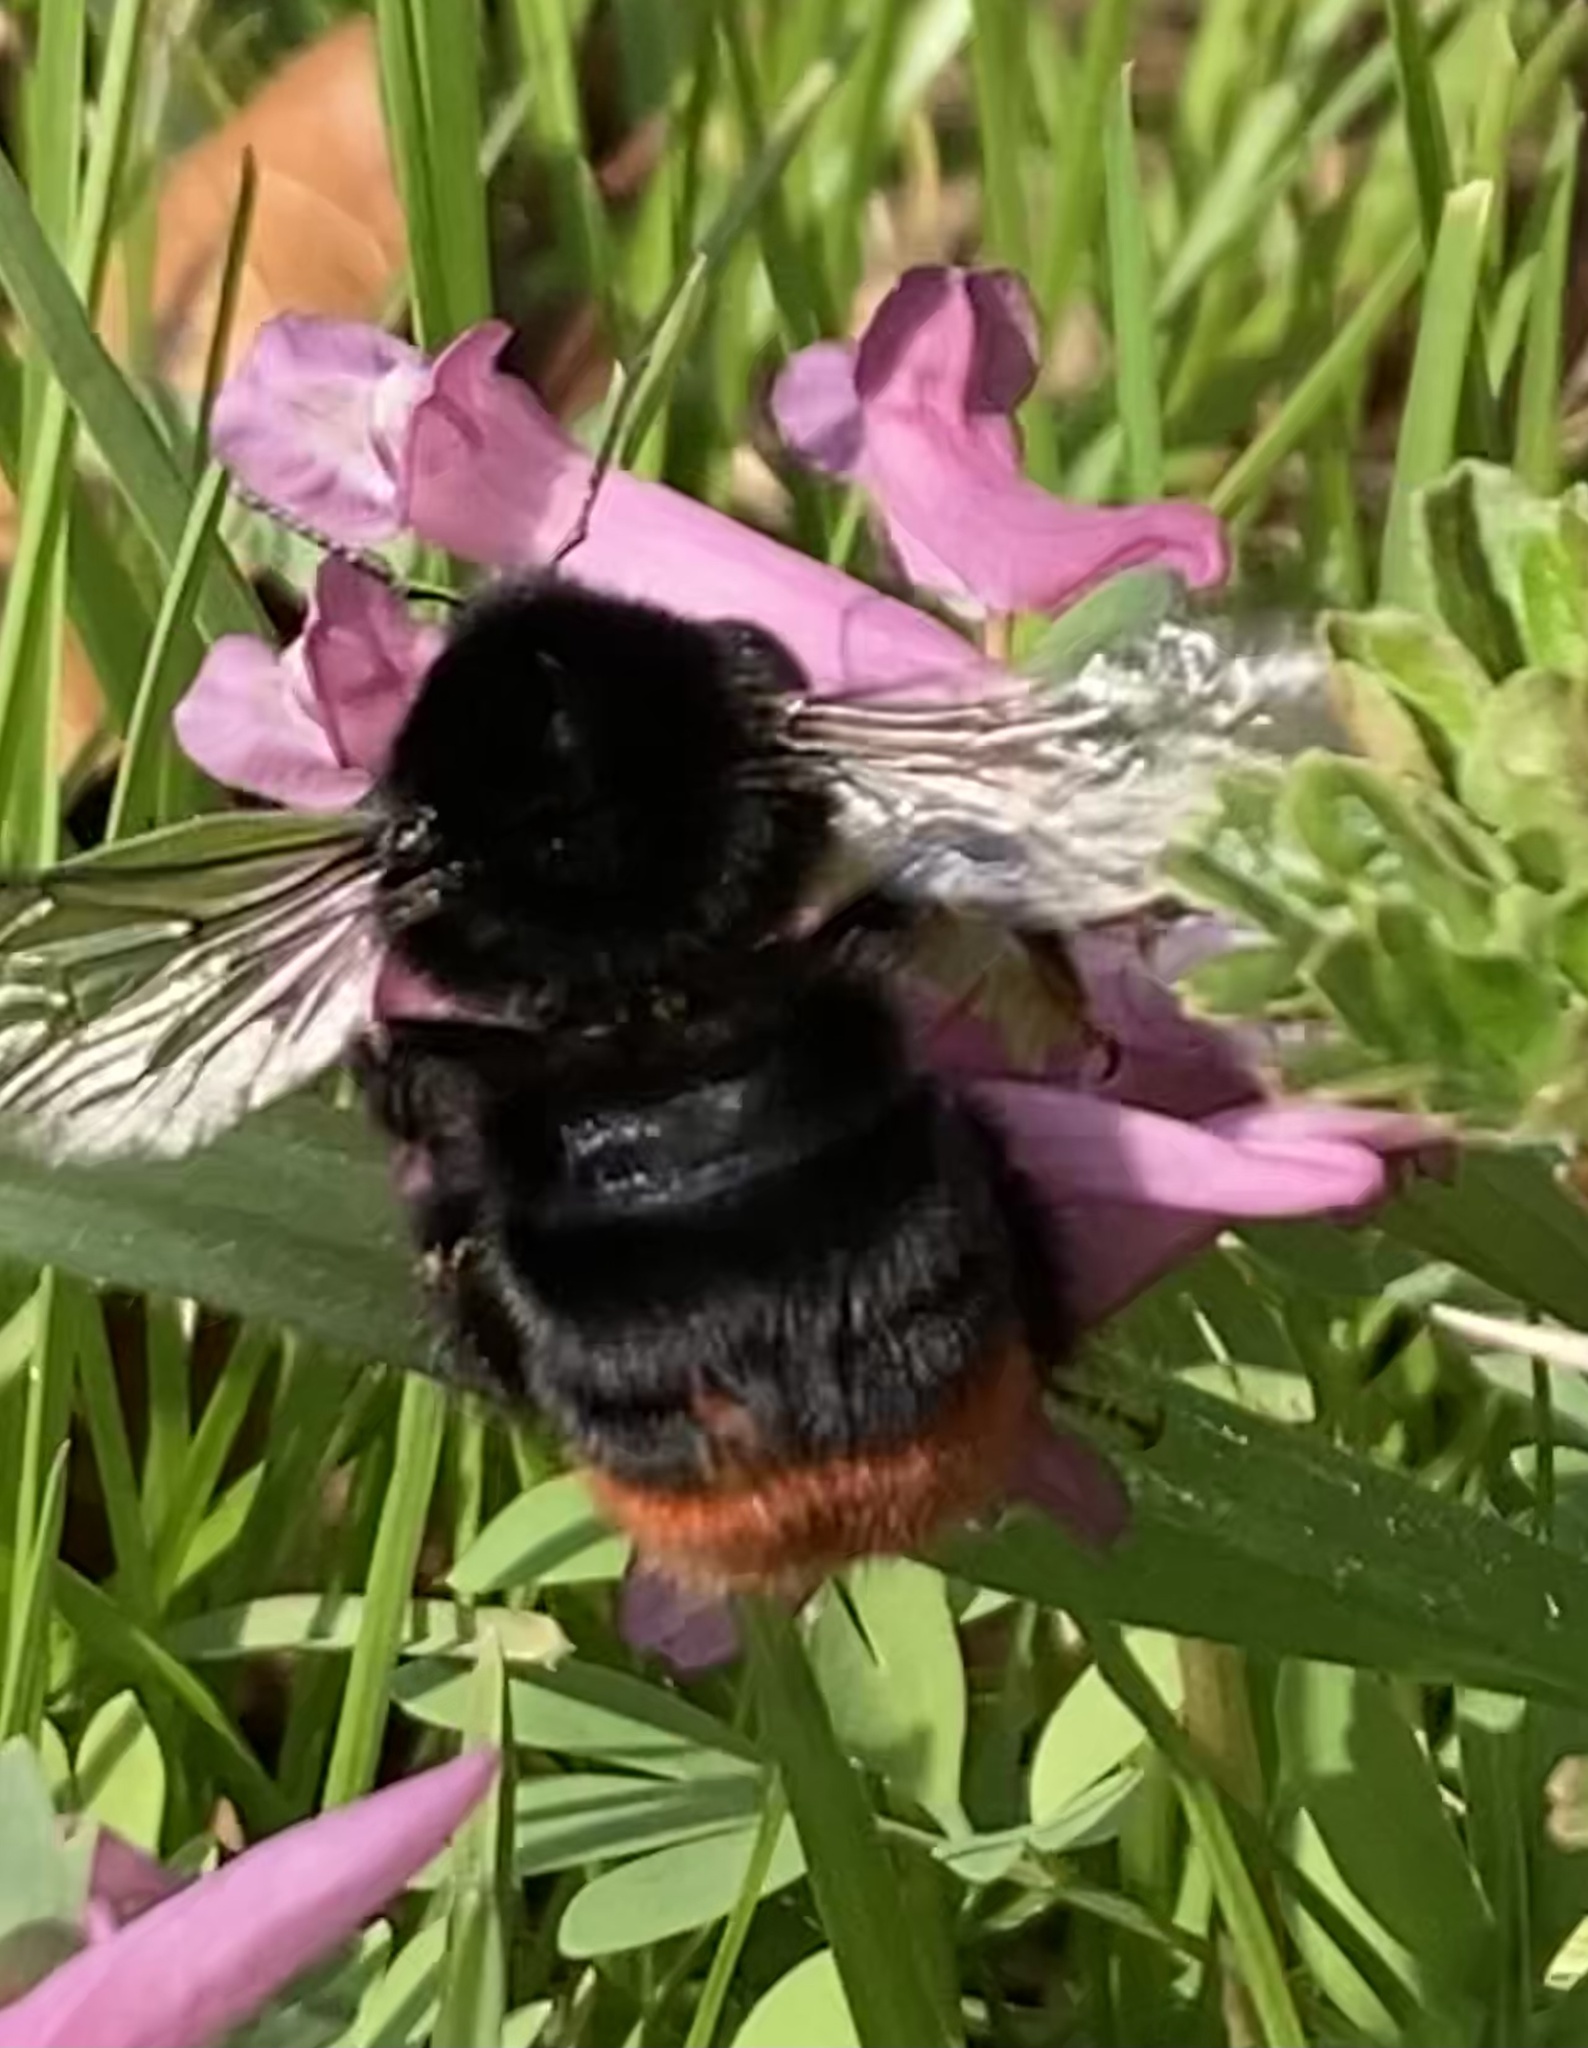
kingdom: Animalia
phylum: Arthropoda
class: Insecta
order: Hymenoptera
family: Apidae
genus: Bombus
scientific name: Bombus lapidarius
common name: Large red-tailed humble-bee
